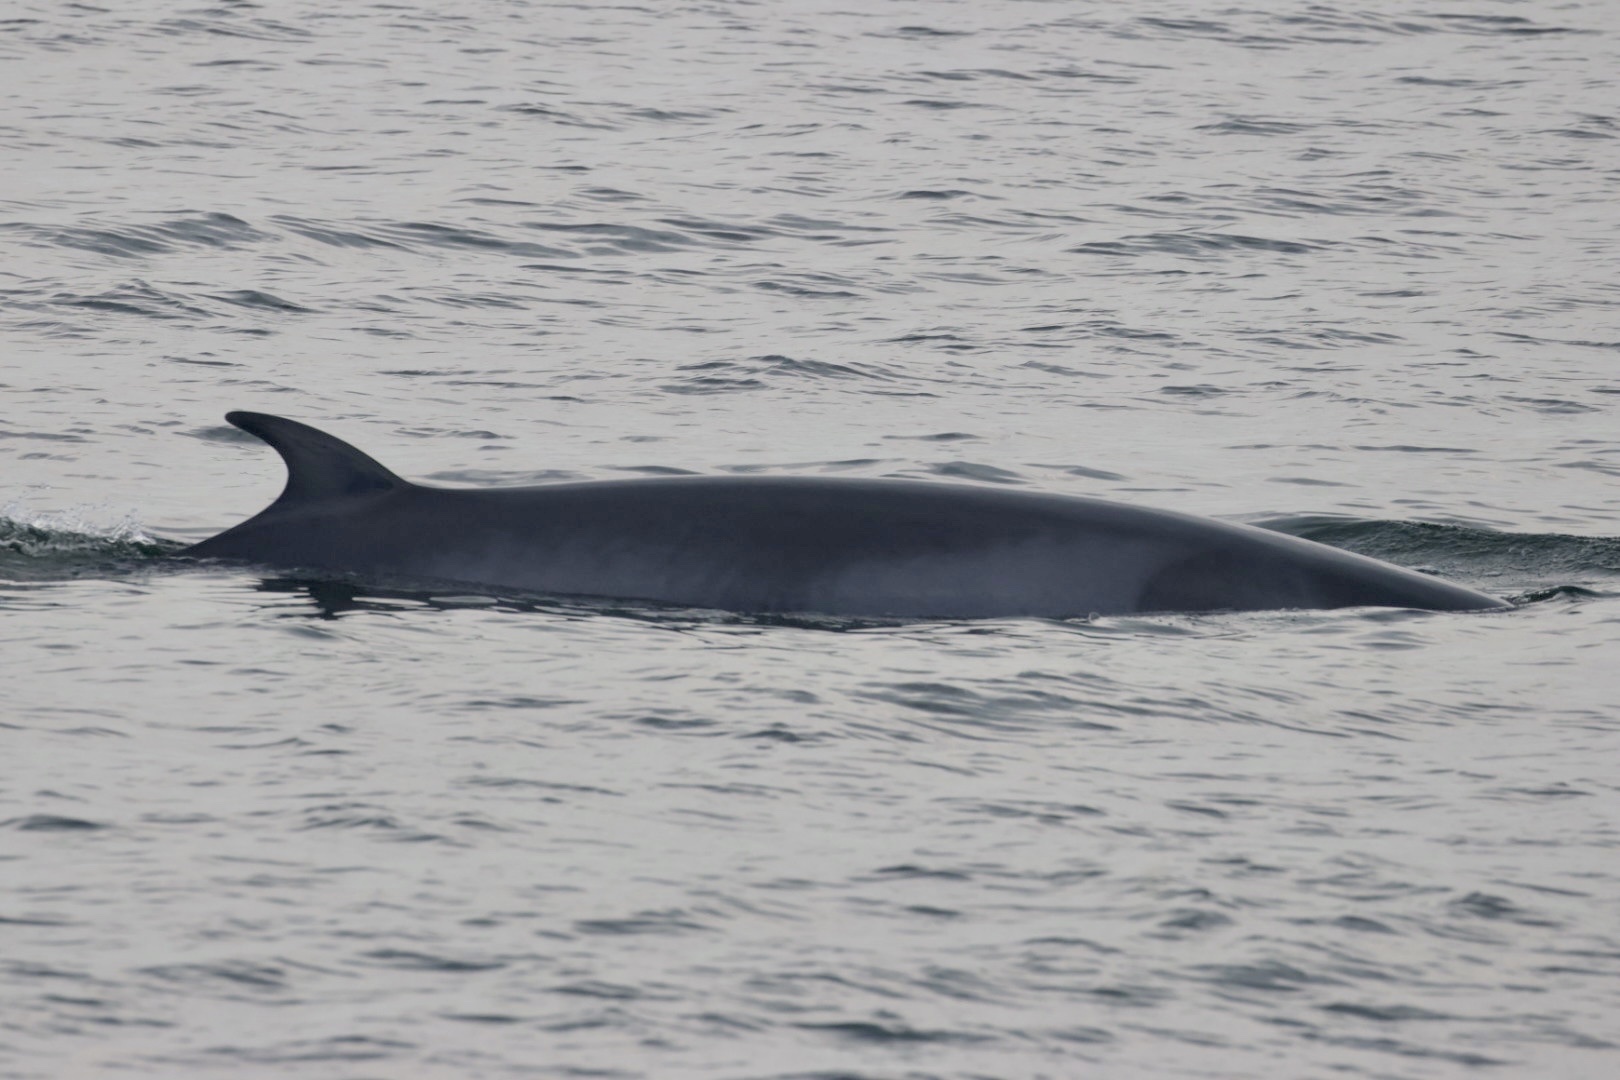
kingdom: Animalia
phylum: Chordata
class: Mammalia
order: Cetacea
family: Balaenopteridae
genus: Balaenoptera
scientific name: Balaenoptera acutorostrata
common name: Common minke whale
